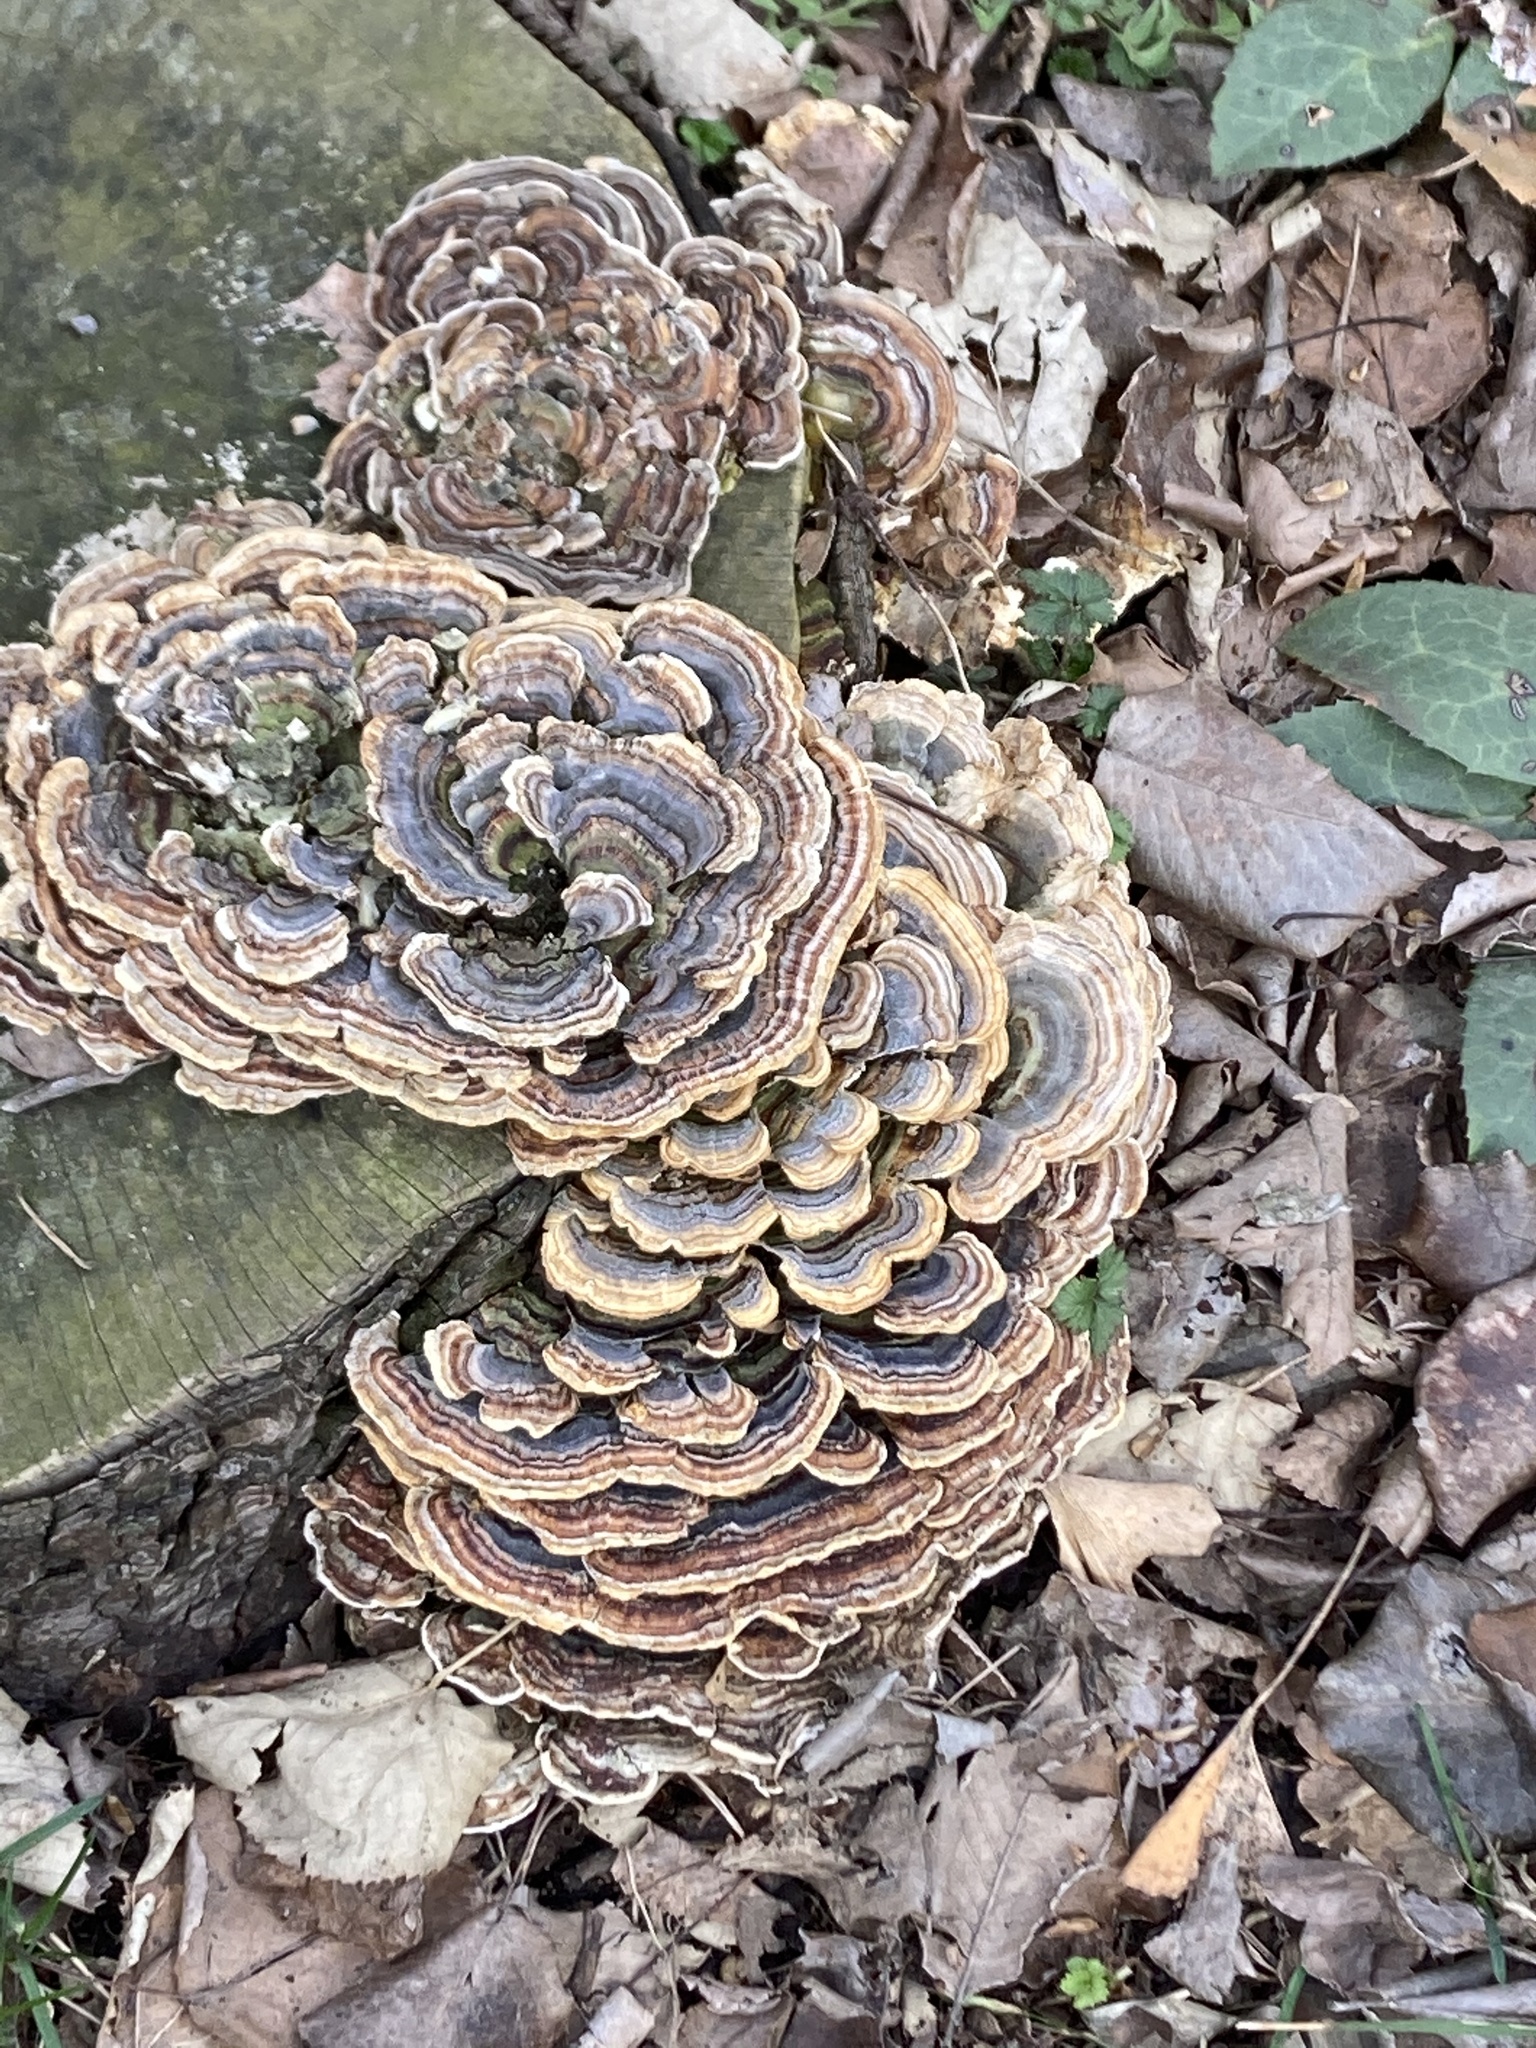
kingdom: Fungi
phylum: Basidiomycota
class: Agaricomycetes
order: Polyporales
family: Polyporaceae
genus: Trametes
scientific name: Trametes versicolor
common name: Turkeytail
